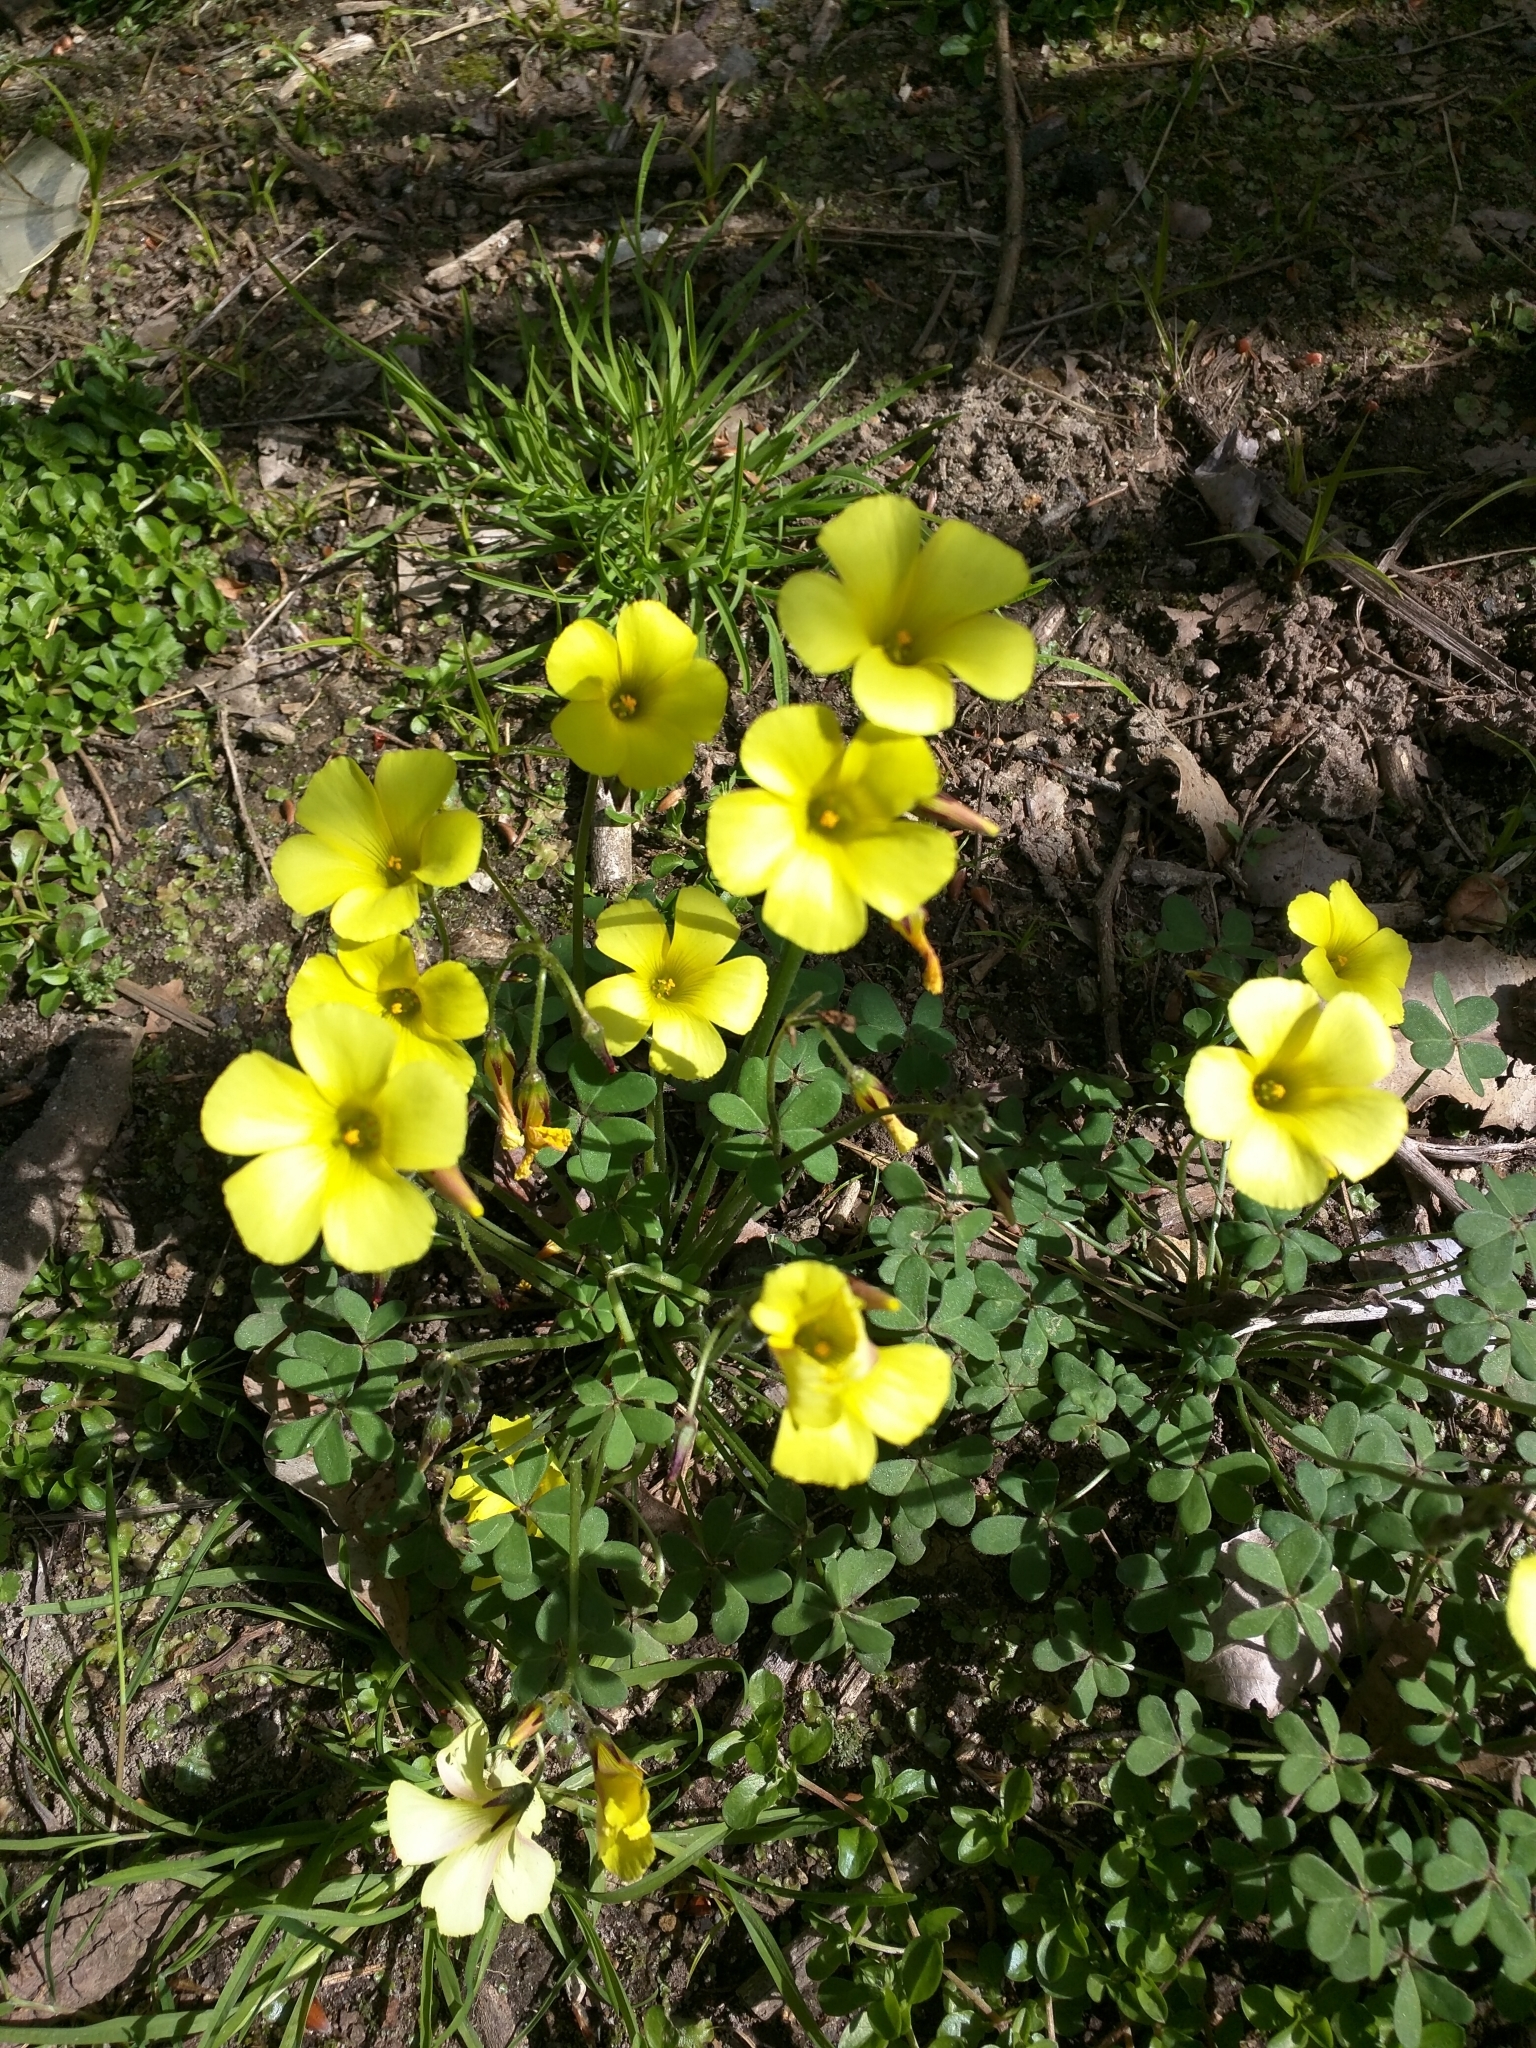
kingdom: Plantae
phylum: Tracheophyta
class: Magnoliopsida
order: Oxalidales
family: Oxalidaceae
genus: Oxalis
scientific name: Oxalis pes-caprae
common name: Bermuda-buttercup
